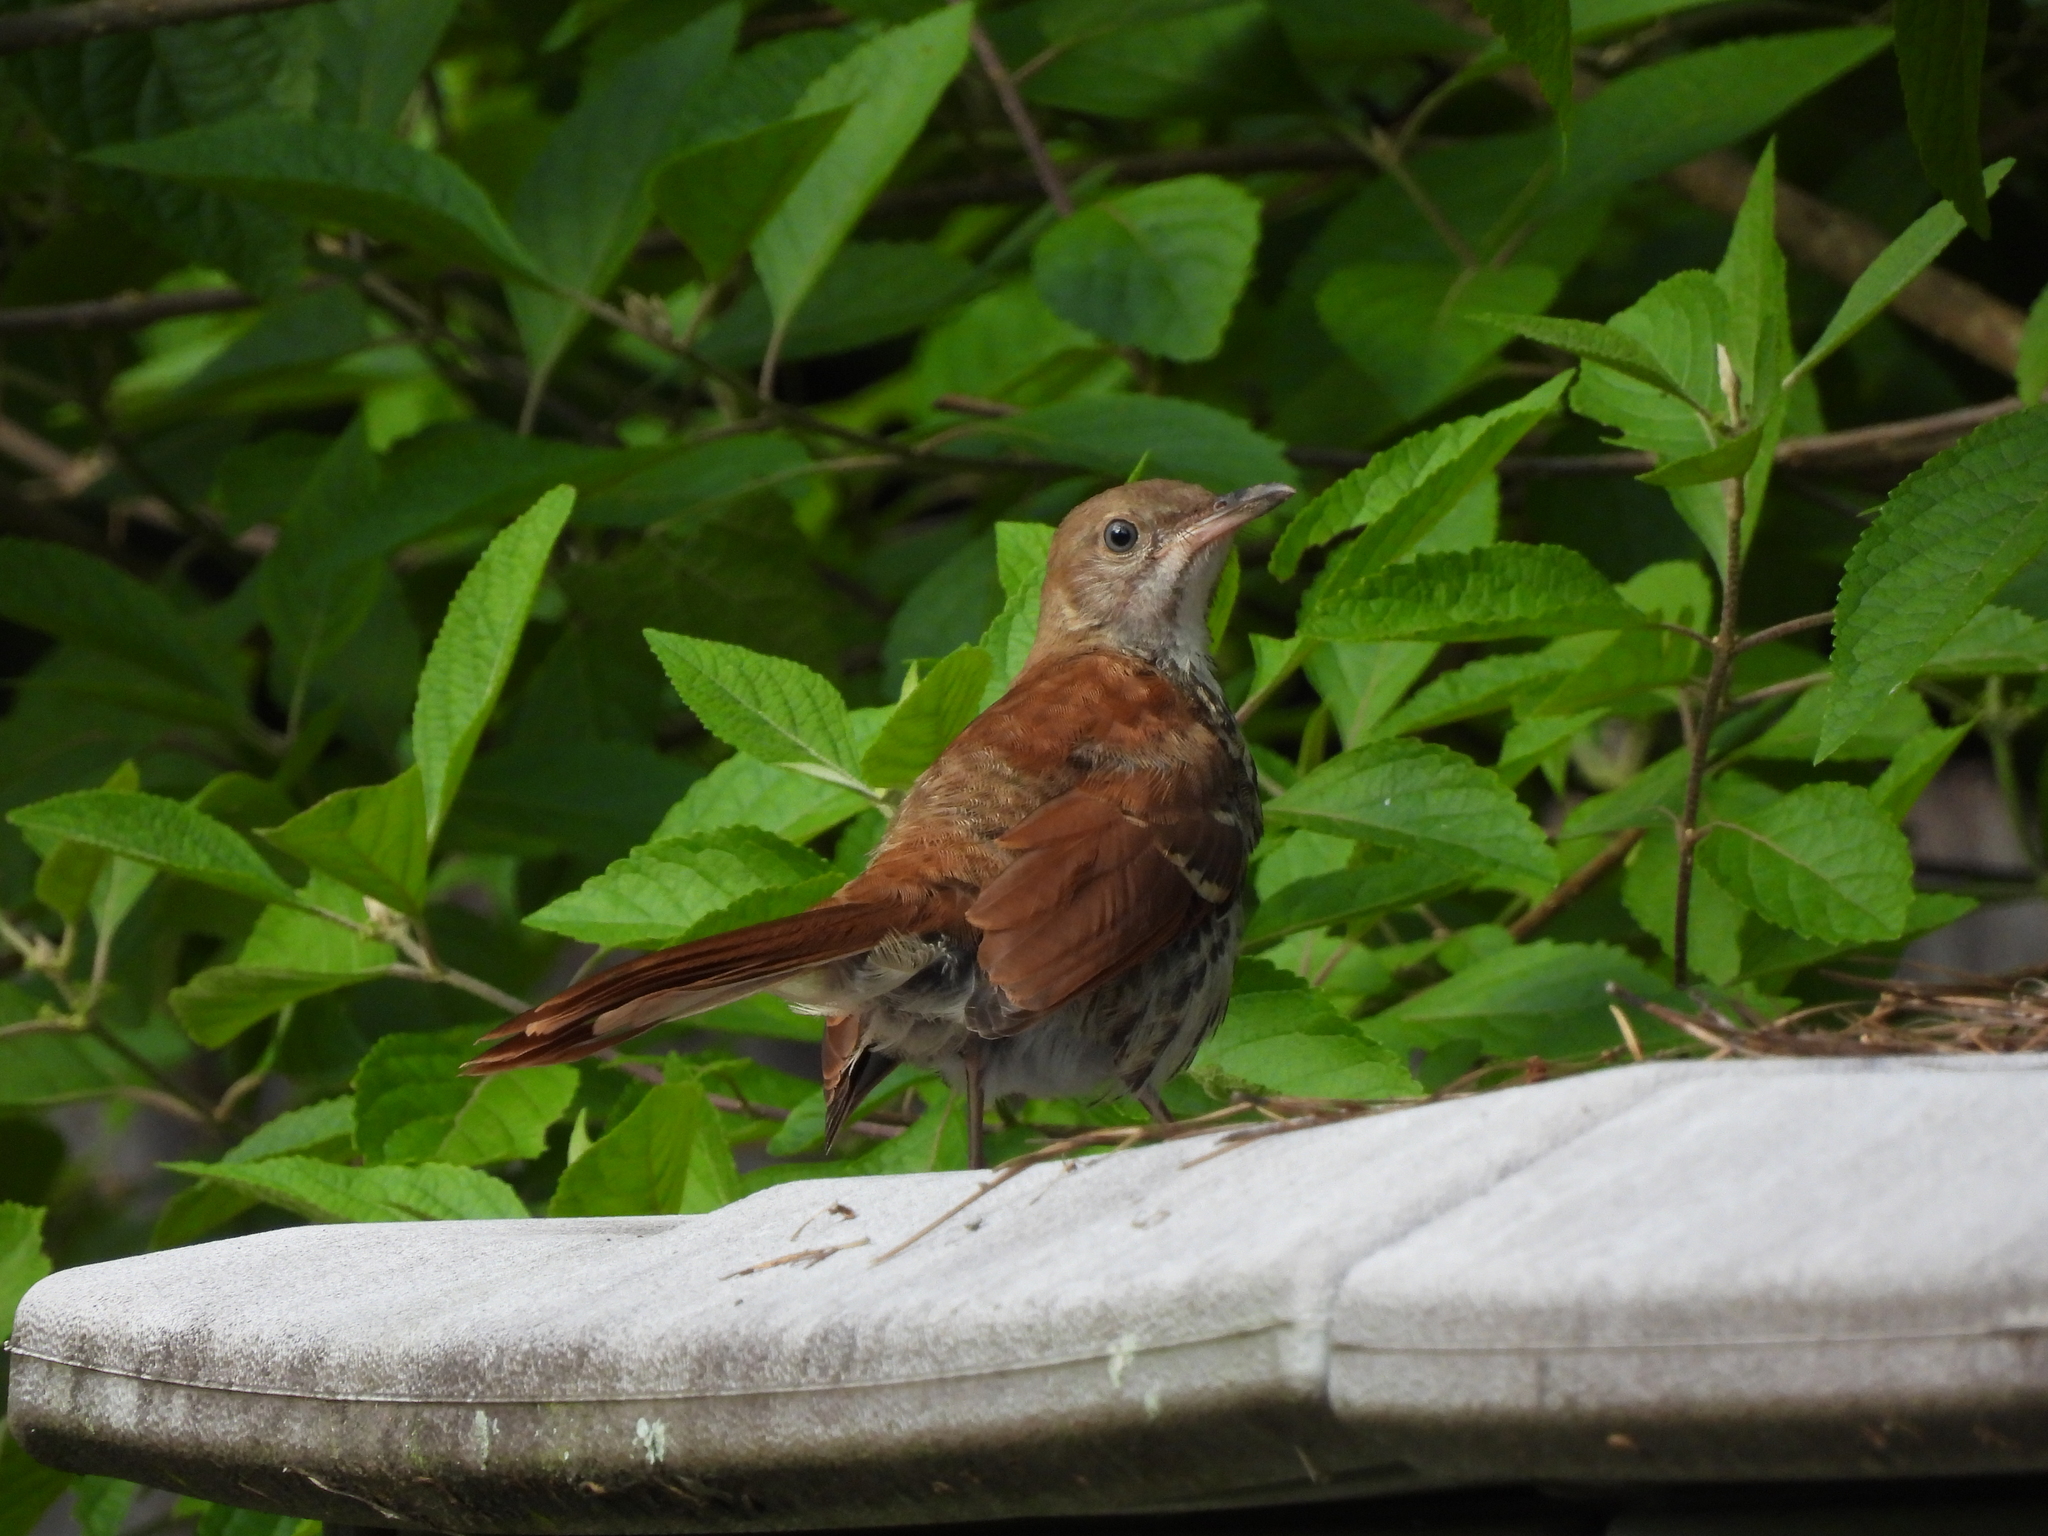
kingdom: Animalia
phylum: Chordata
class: Aves
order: Passeriformes
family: Mimidae
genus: Toxostoma
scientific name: Toxostoma rufum
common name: Brown thrasher
